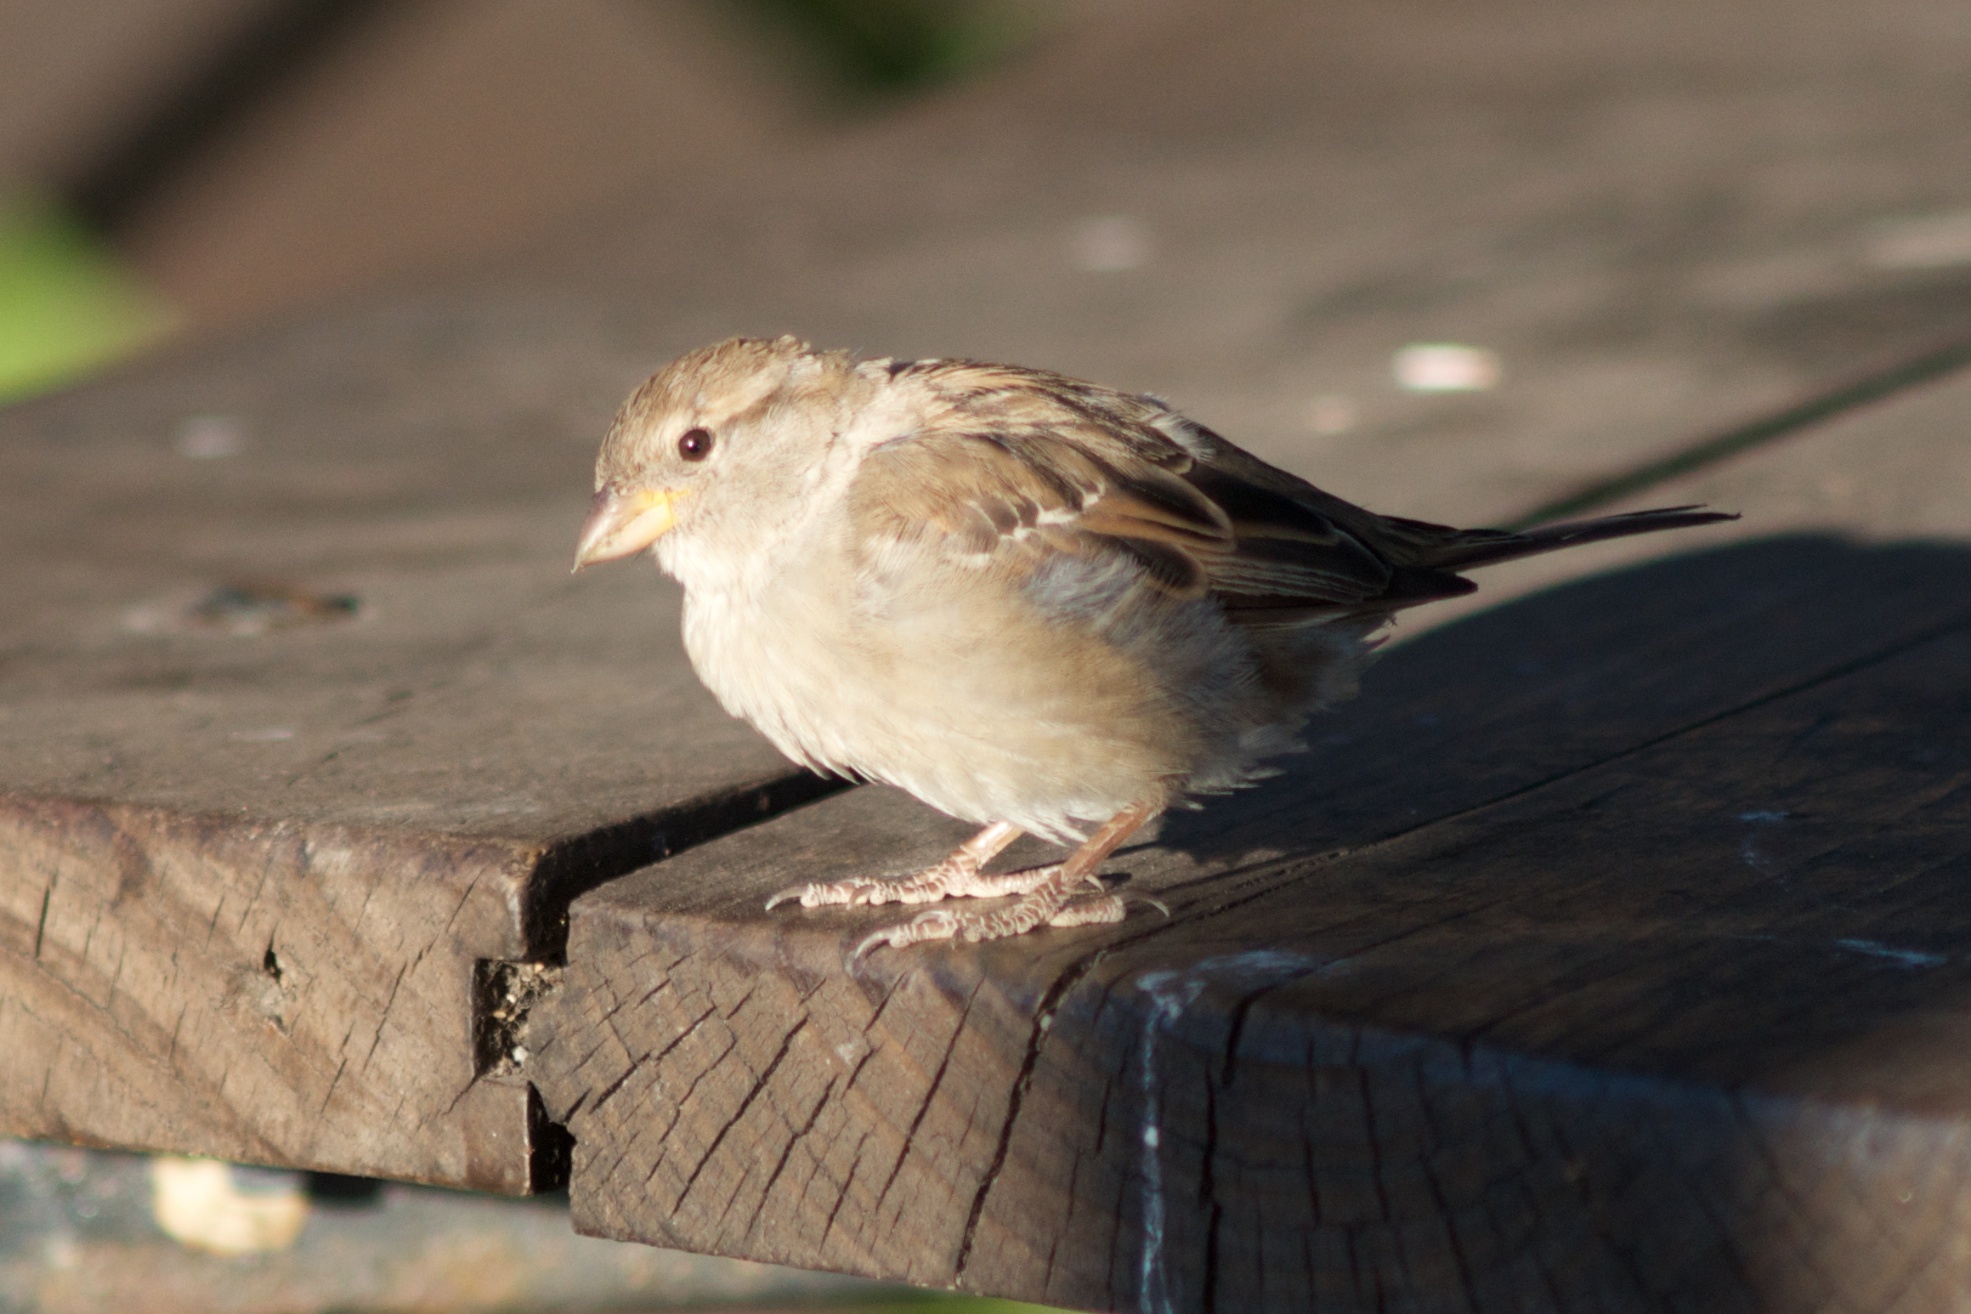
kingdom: Animalia
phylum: Chordata
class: Aves
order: Passeriformes
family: Passeridae
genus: Passer
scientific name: Passer domesticus
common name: House sparrow
